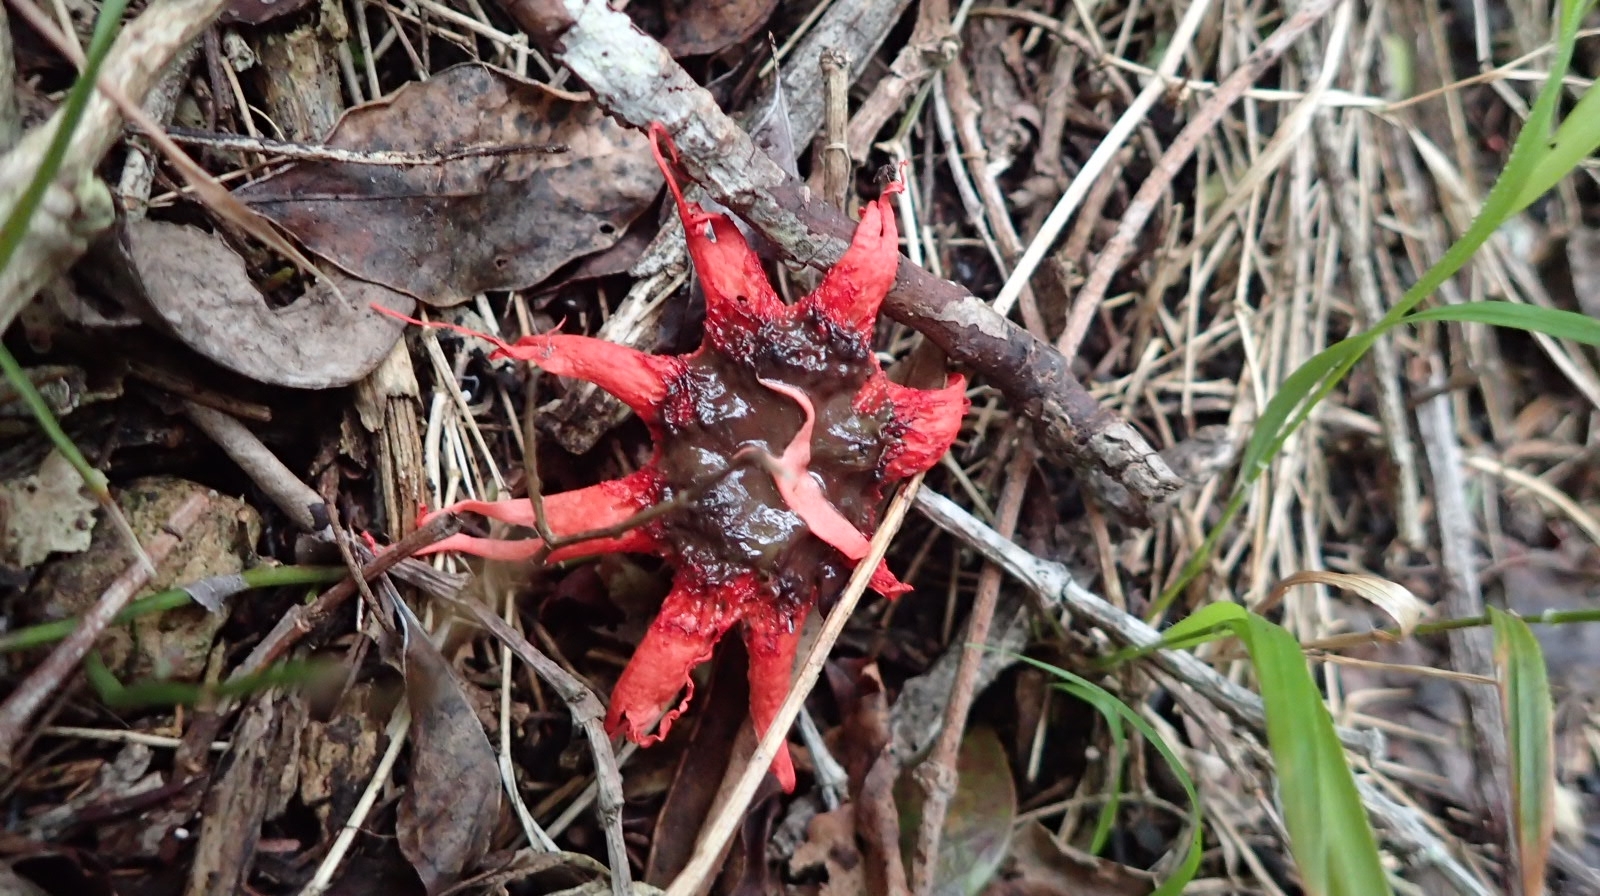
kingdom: Fungi
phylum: Basidiomycota
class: Agaricomycetes
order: Phallales
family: Phallaceae
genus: Aseroe
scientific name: Aseroe rubra
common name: Starfish fungus
